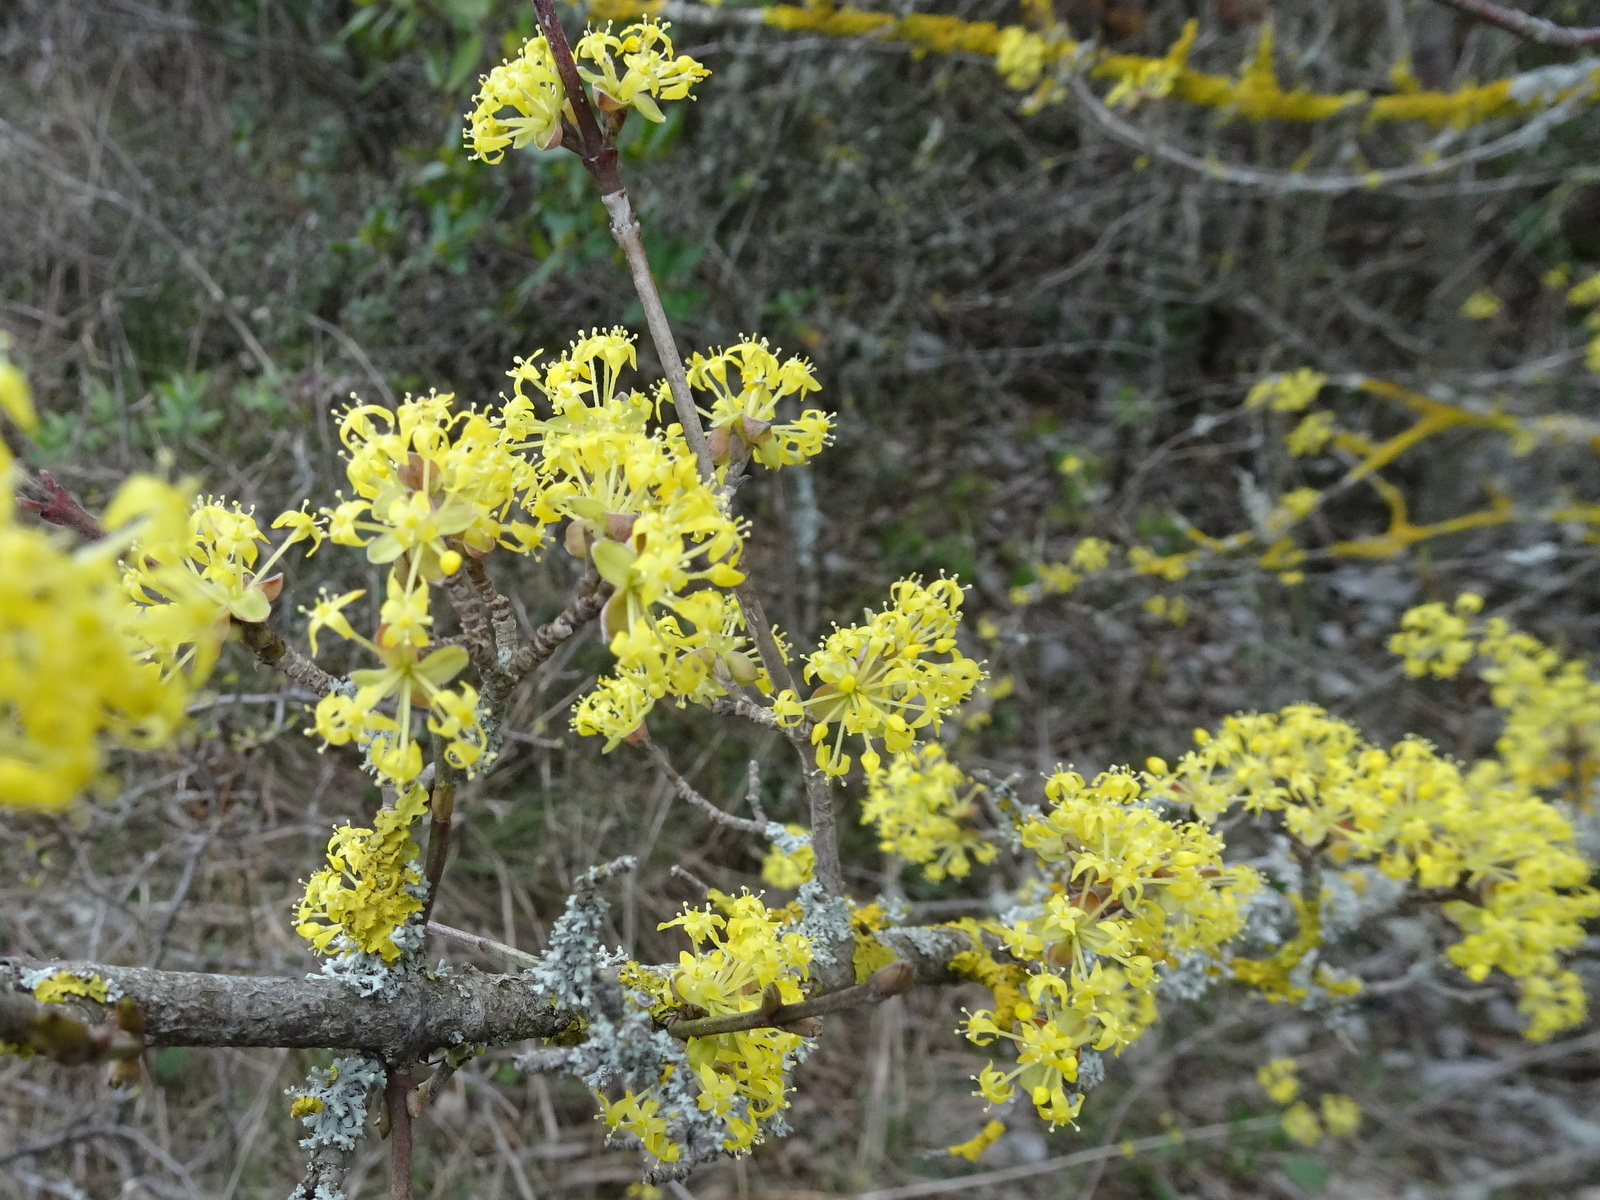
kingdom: Plantae
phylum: Tracheophyta
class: Magnoliopsida
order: Cornales
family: Cornaceae
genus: Cornus
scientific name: Cornus mas
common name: Cornelian-cherry
